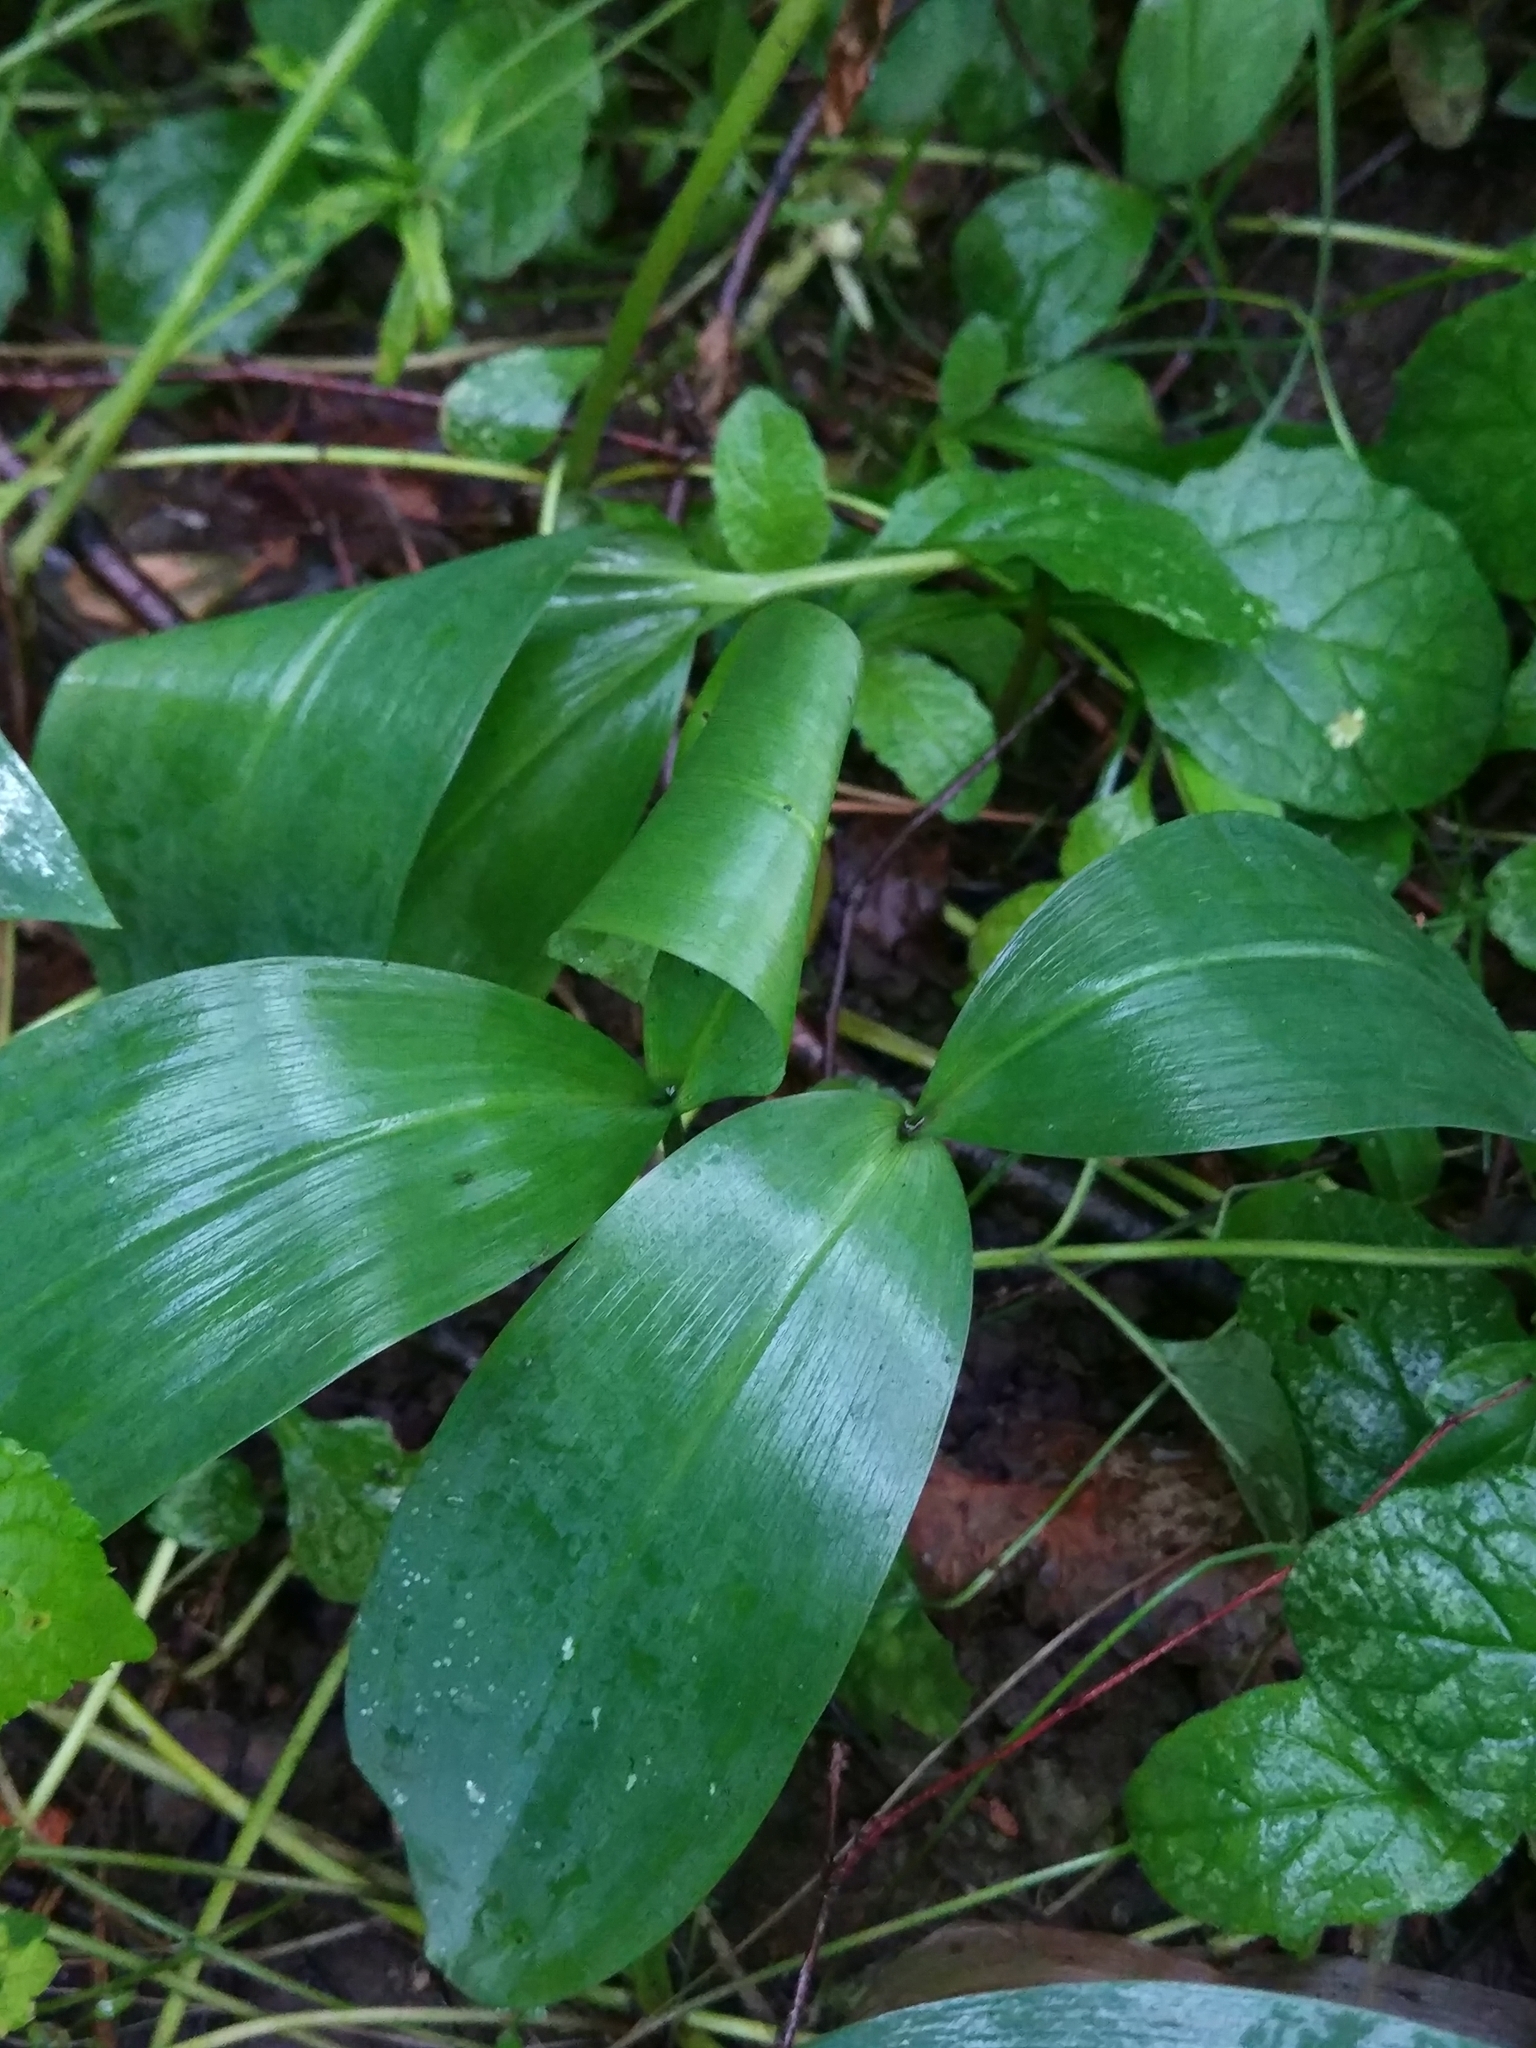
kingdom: Plantae
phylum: Tracheophyta
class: Liliopsida
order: Asparagales
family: Asparagaceae
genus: Convallaria
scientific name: Convallaria majalis
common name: Lily-of-the-valley
